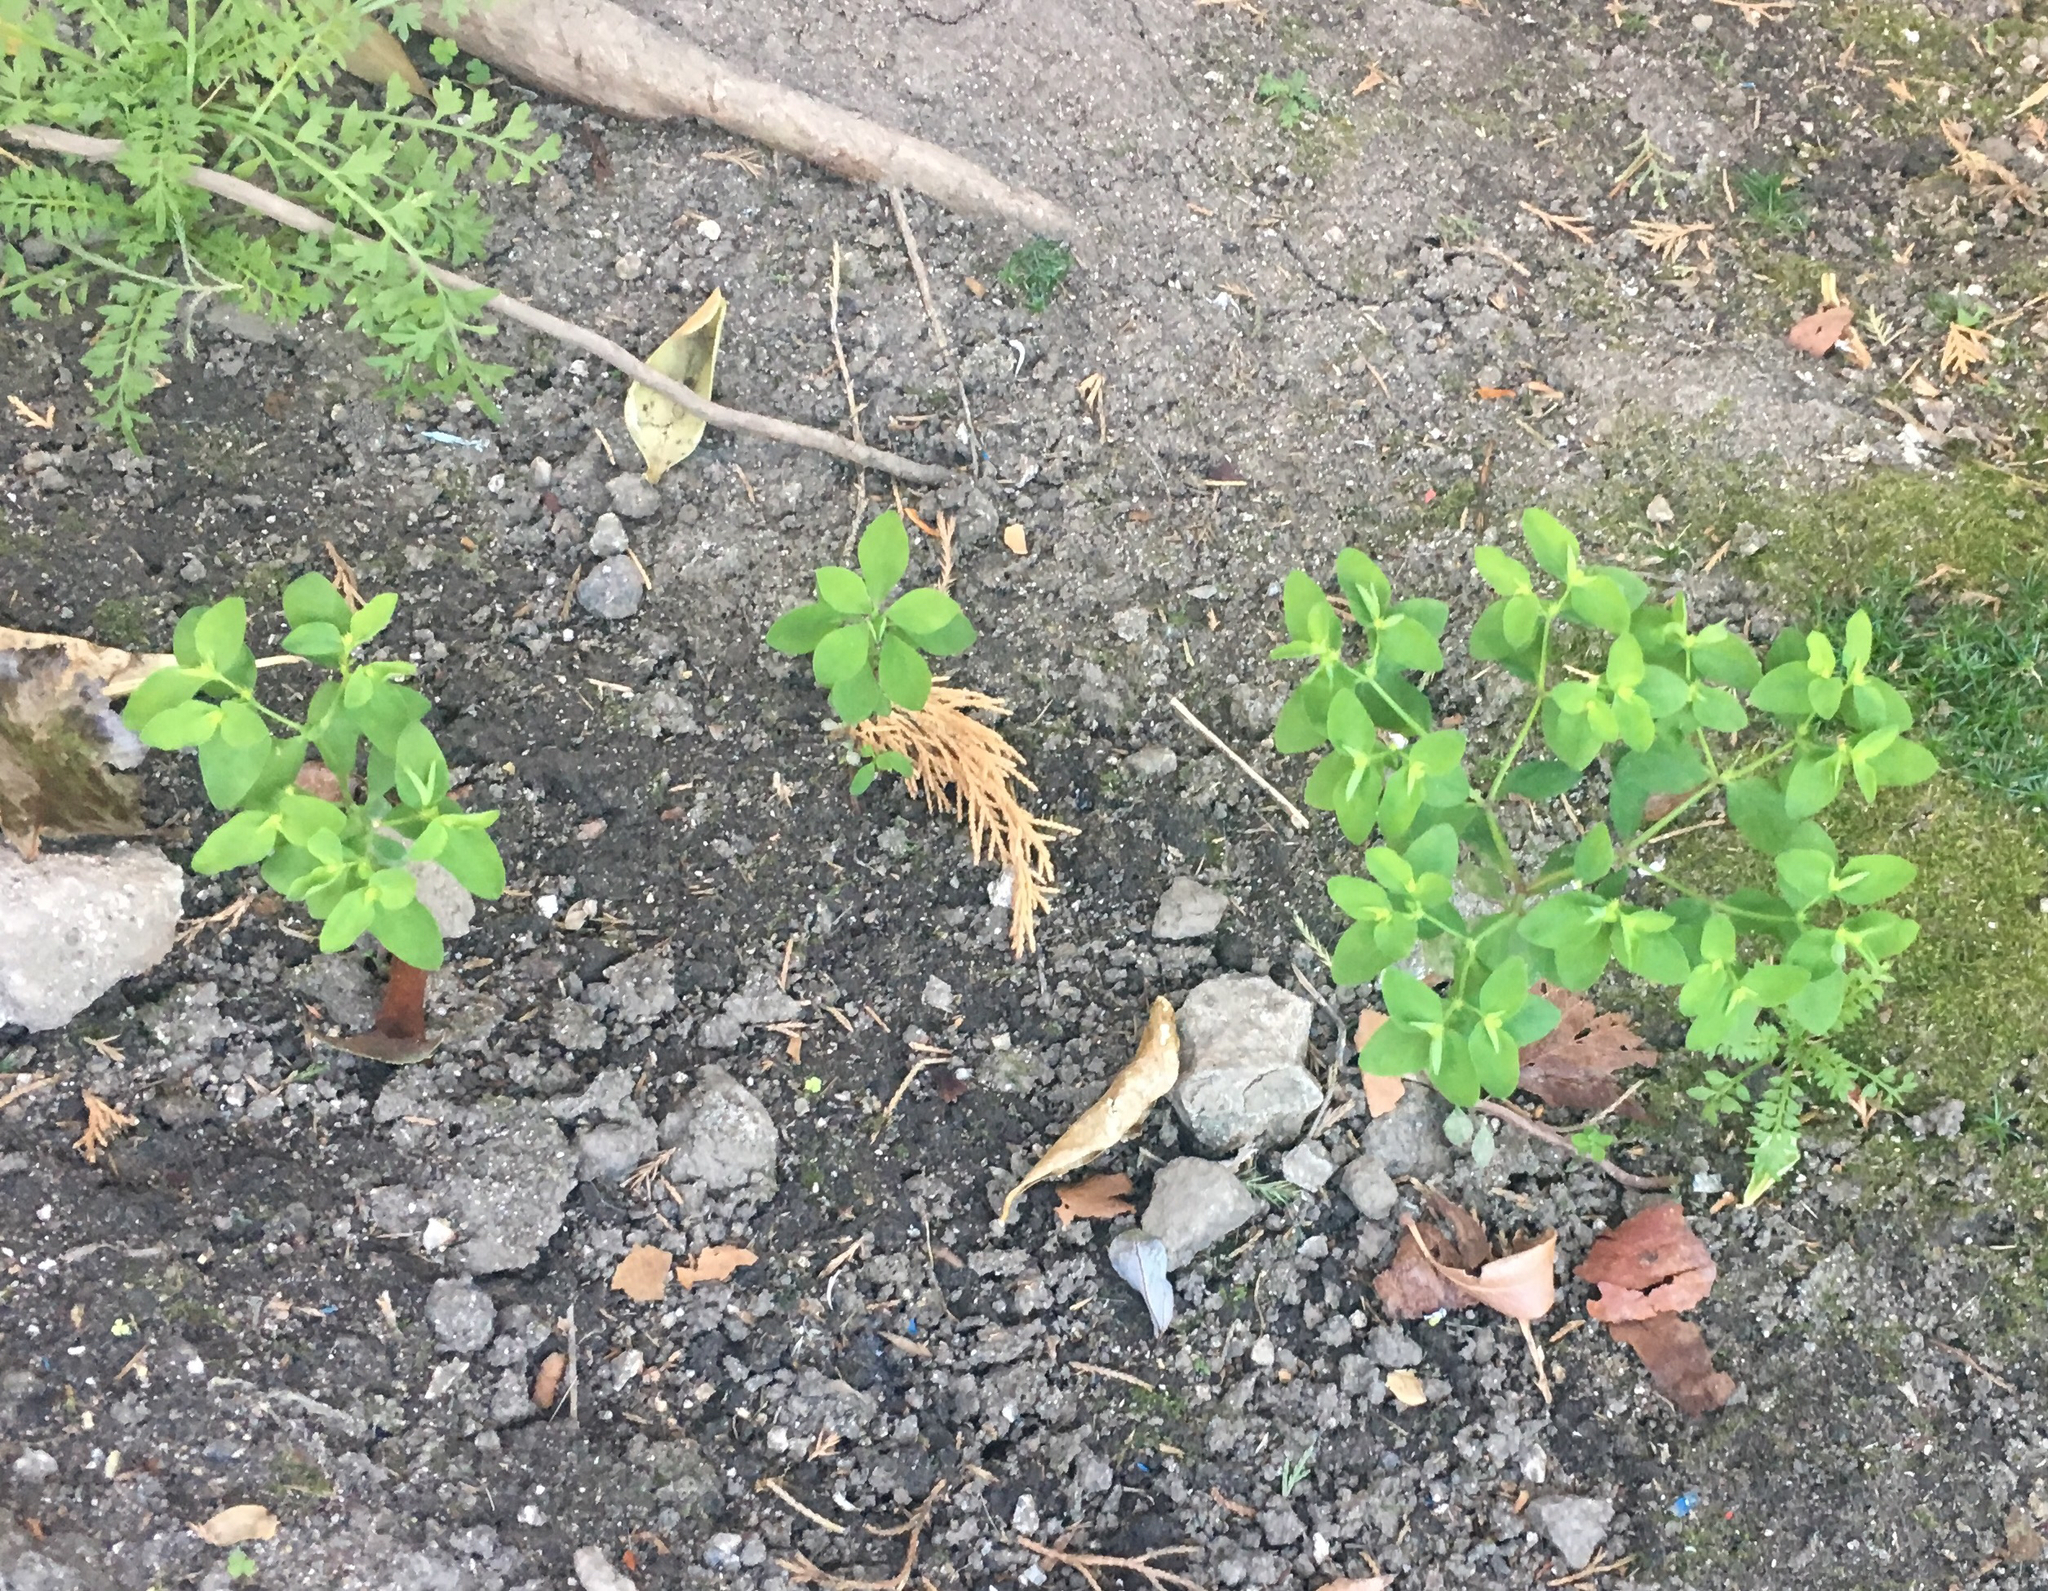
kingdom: Plantae
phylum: Tracheophyta
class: Magnoliopsida
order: Malpighiales
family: Euphorbiaceae
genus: Euphorbia
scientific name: Euphorbia peplus
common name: Petty spurge
